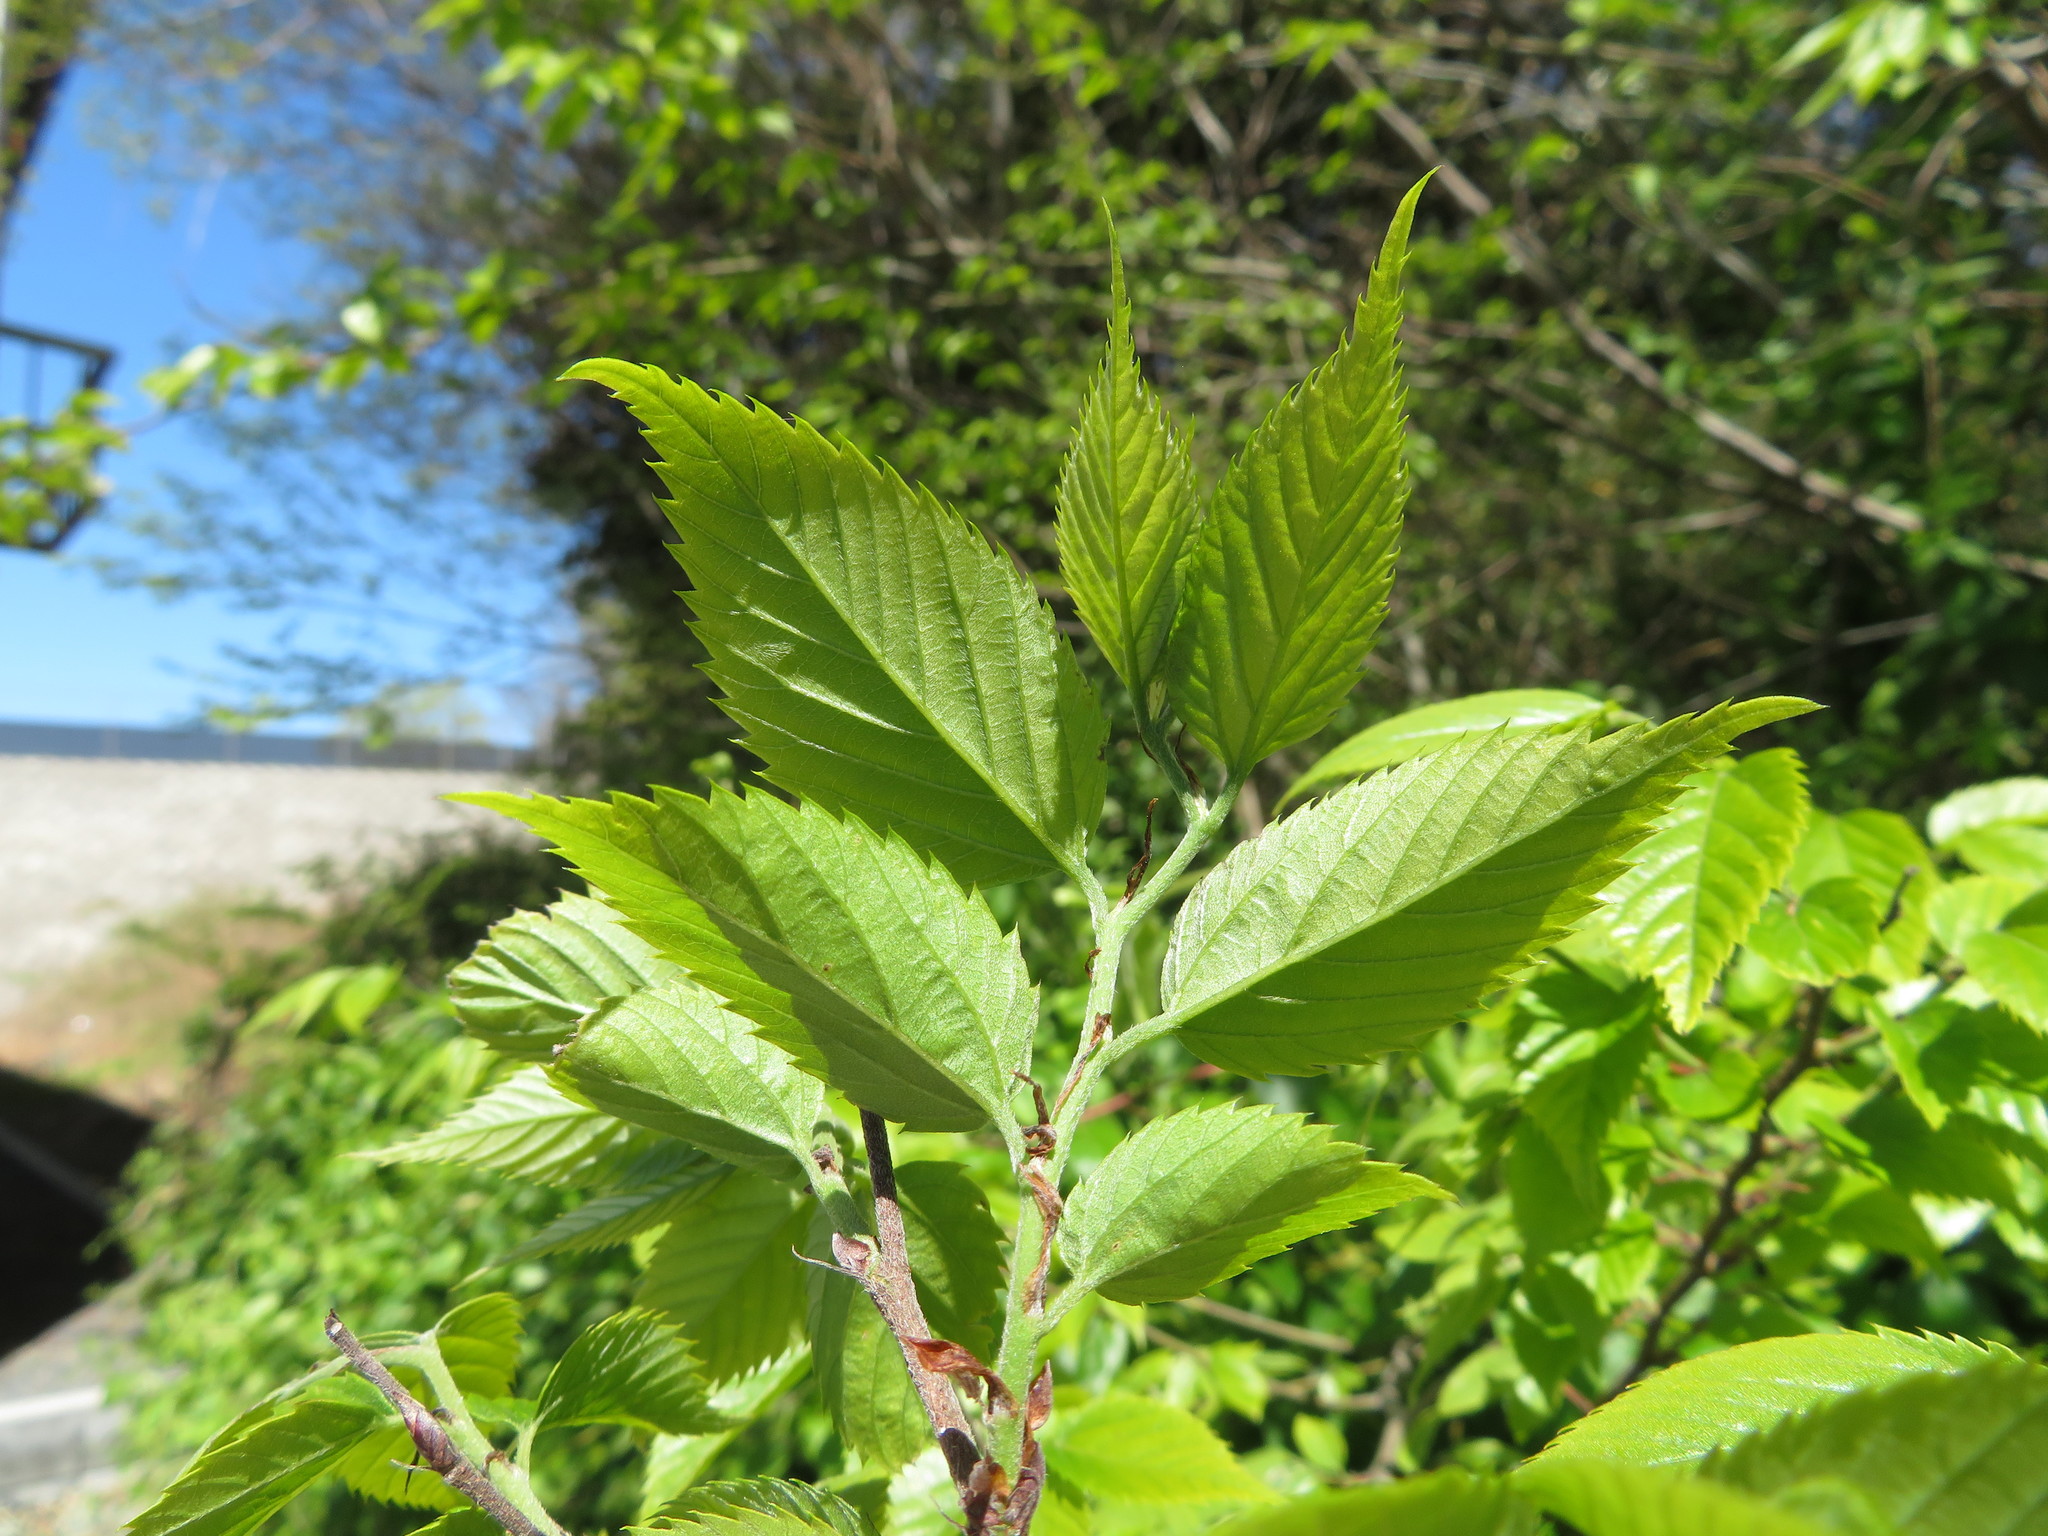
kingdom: Plantae
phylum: Tracheophyta
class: Magnoliopsida
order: Rosales
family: Cannabaceae
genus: Aphananthe
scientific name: Aphananthe aspera
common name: Mukutree
